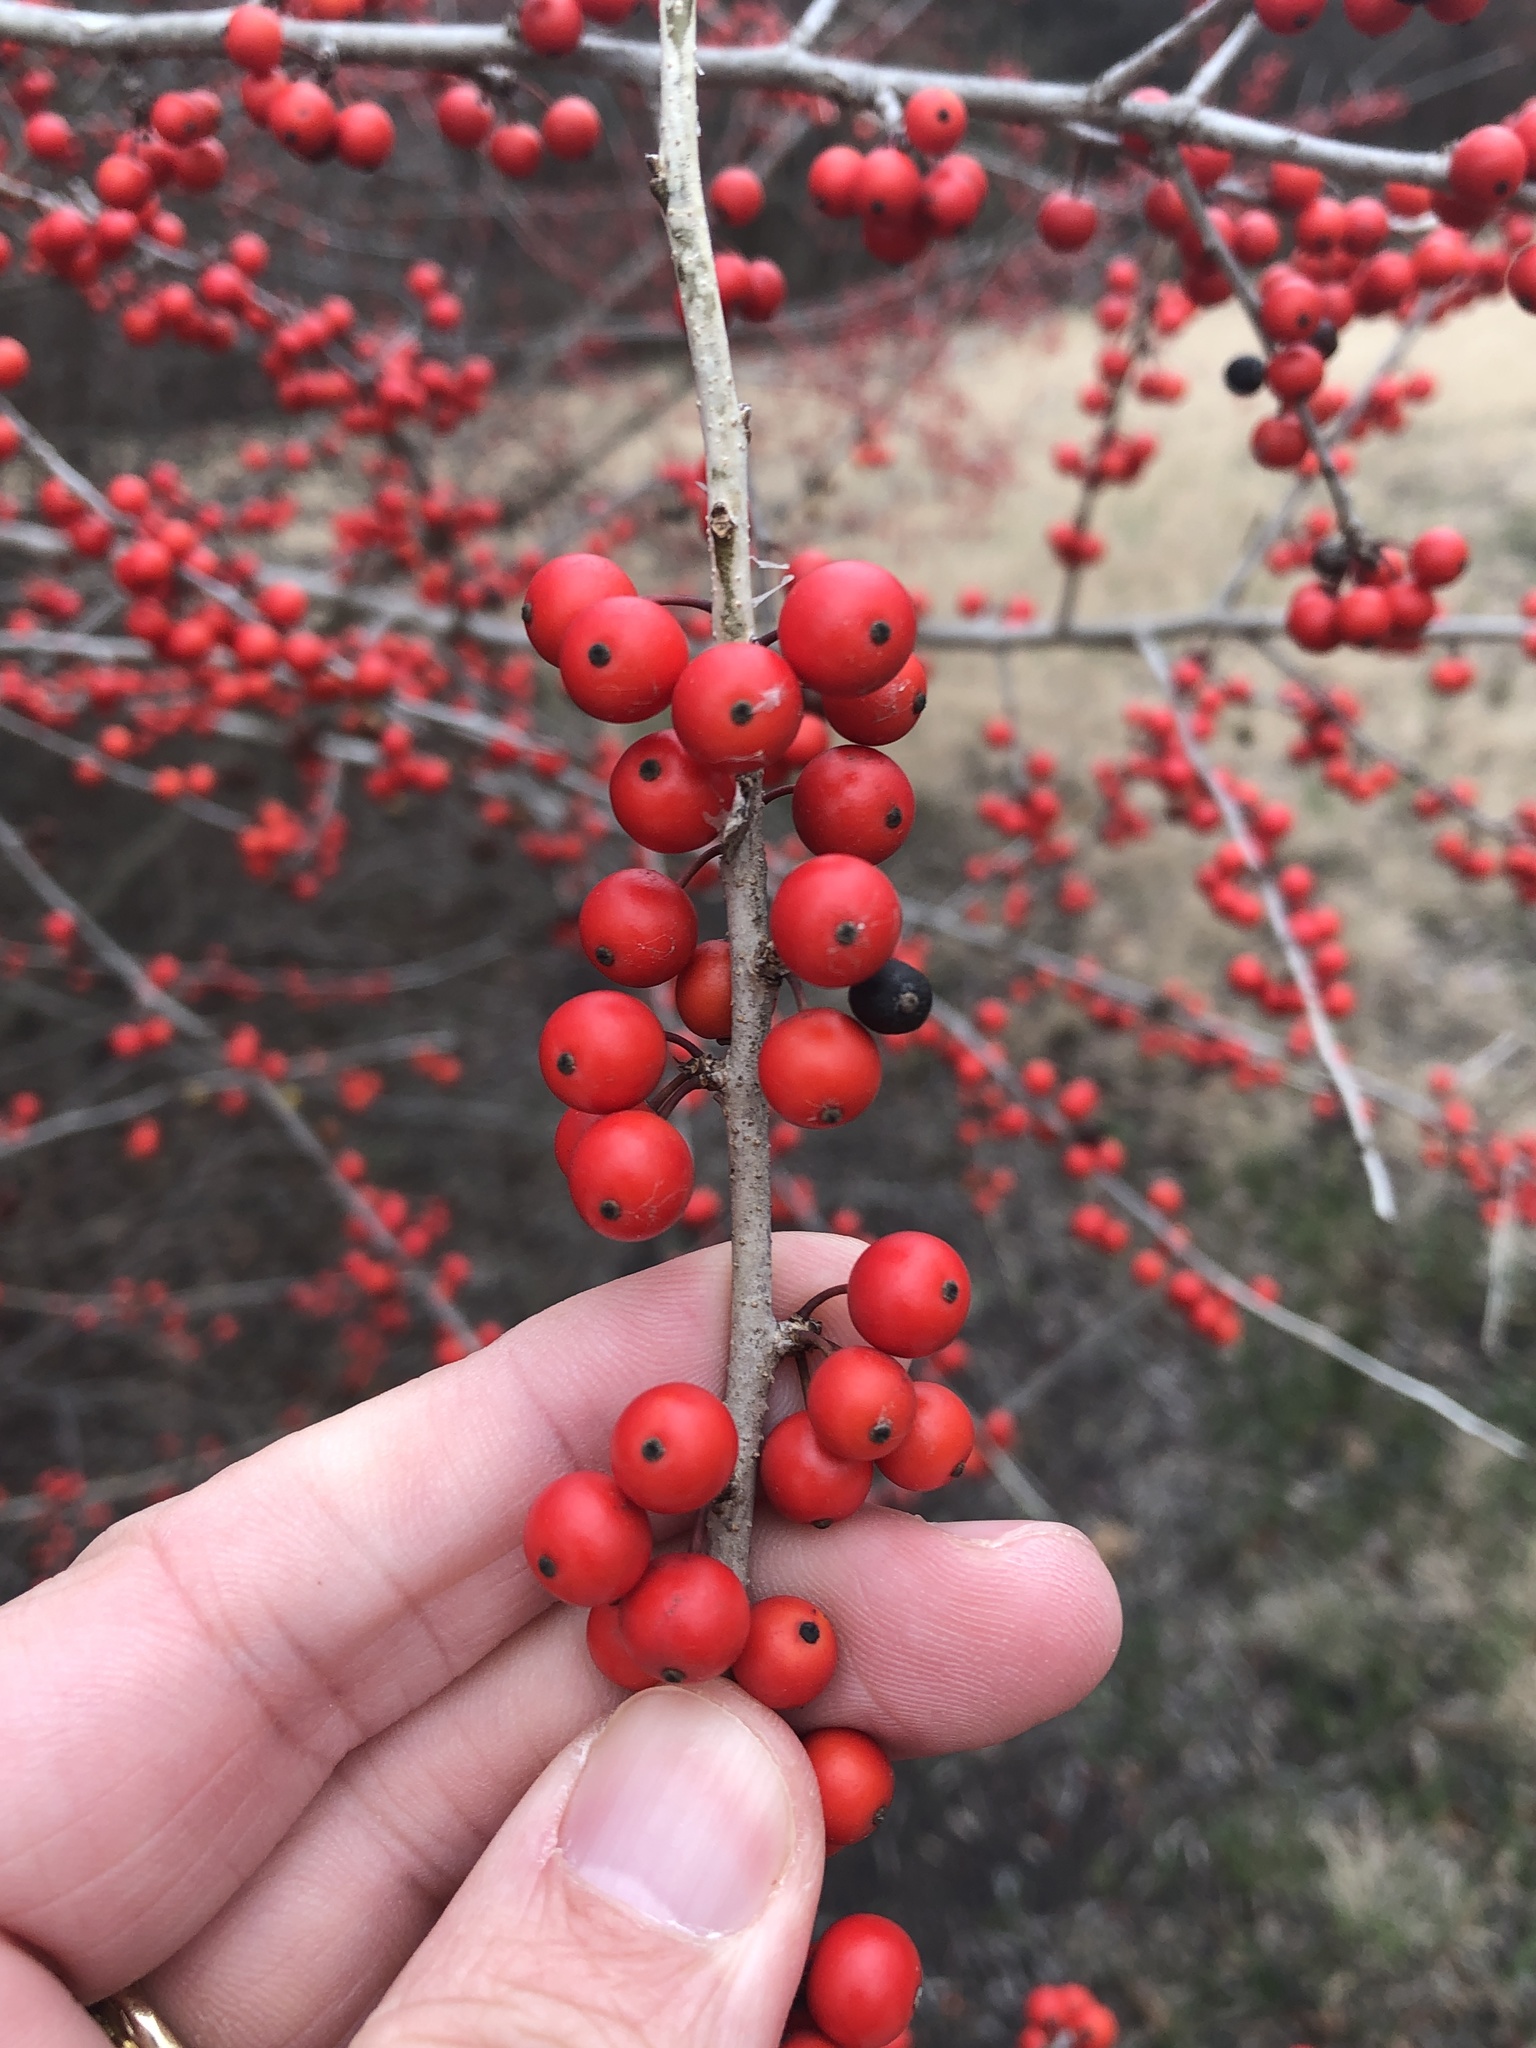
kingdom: Plantae
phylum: Tracheophyta
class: Magnoliopsida
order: Aquifoliales
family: Aquifoliaceae
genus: Ilex
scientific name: Ilex decidua
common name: Possum-haw
